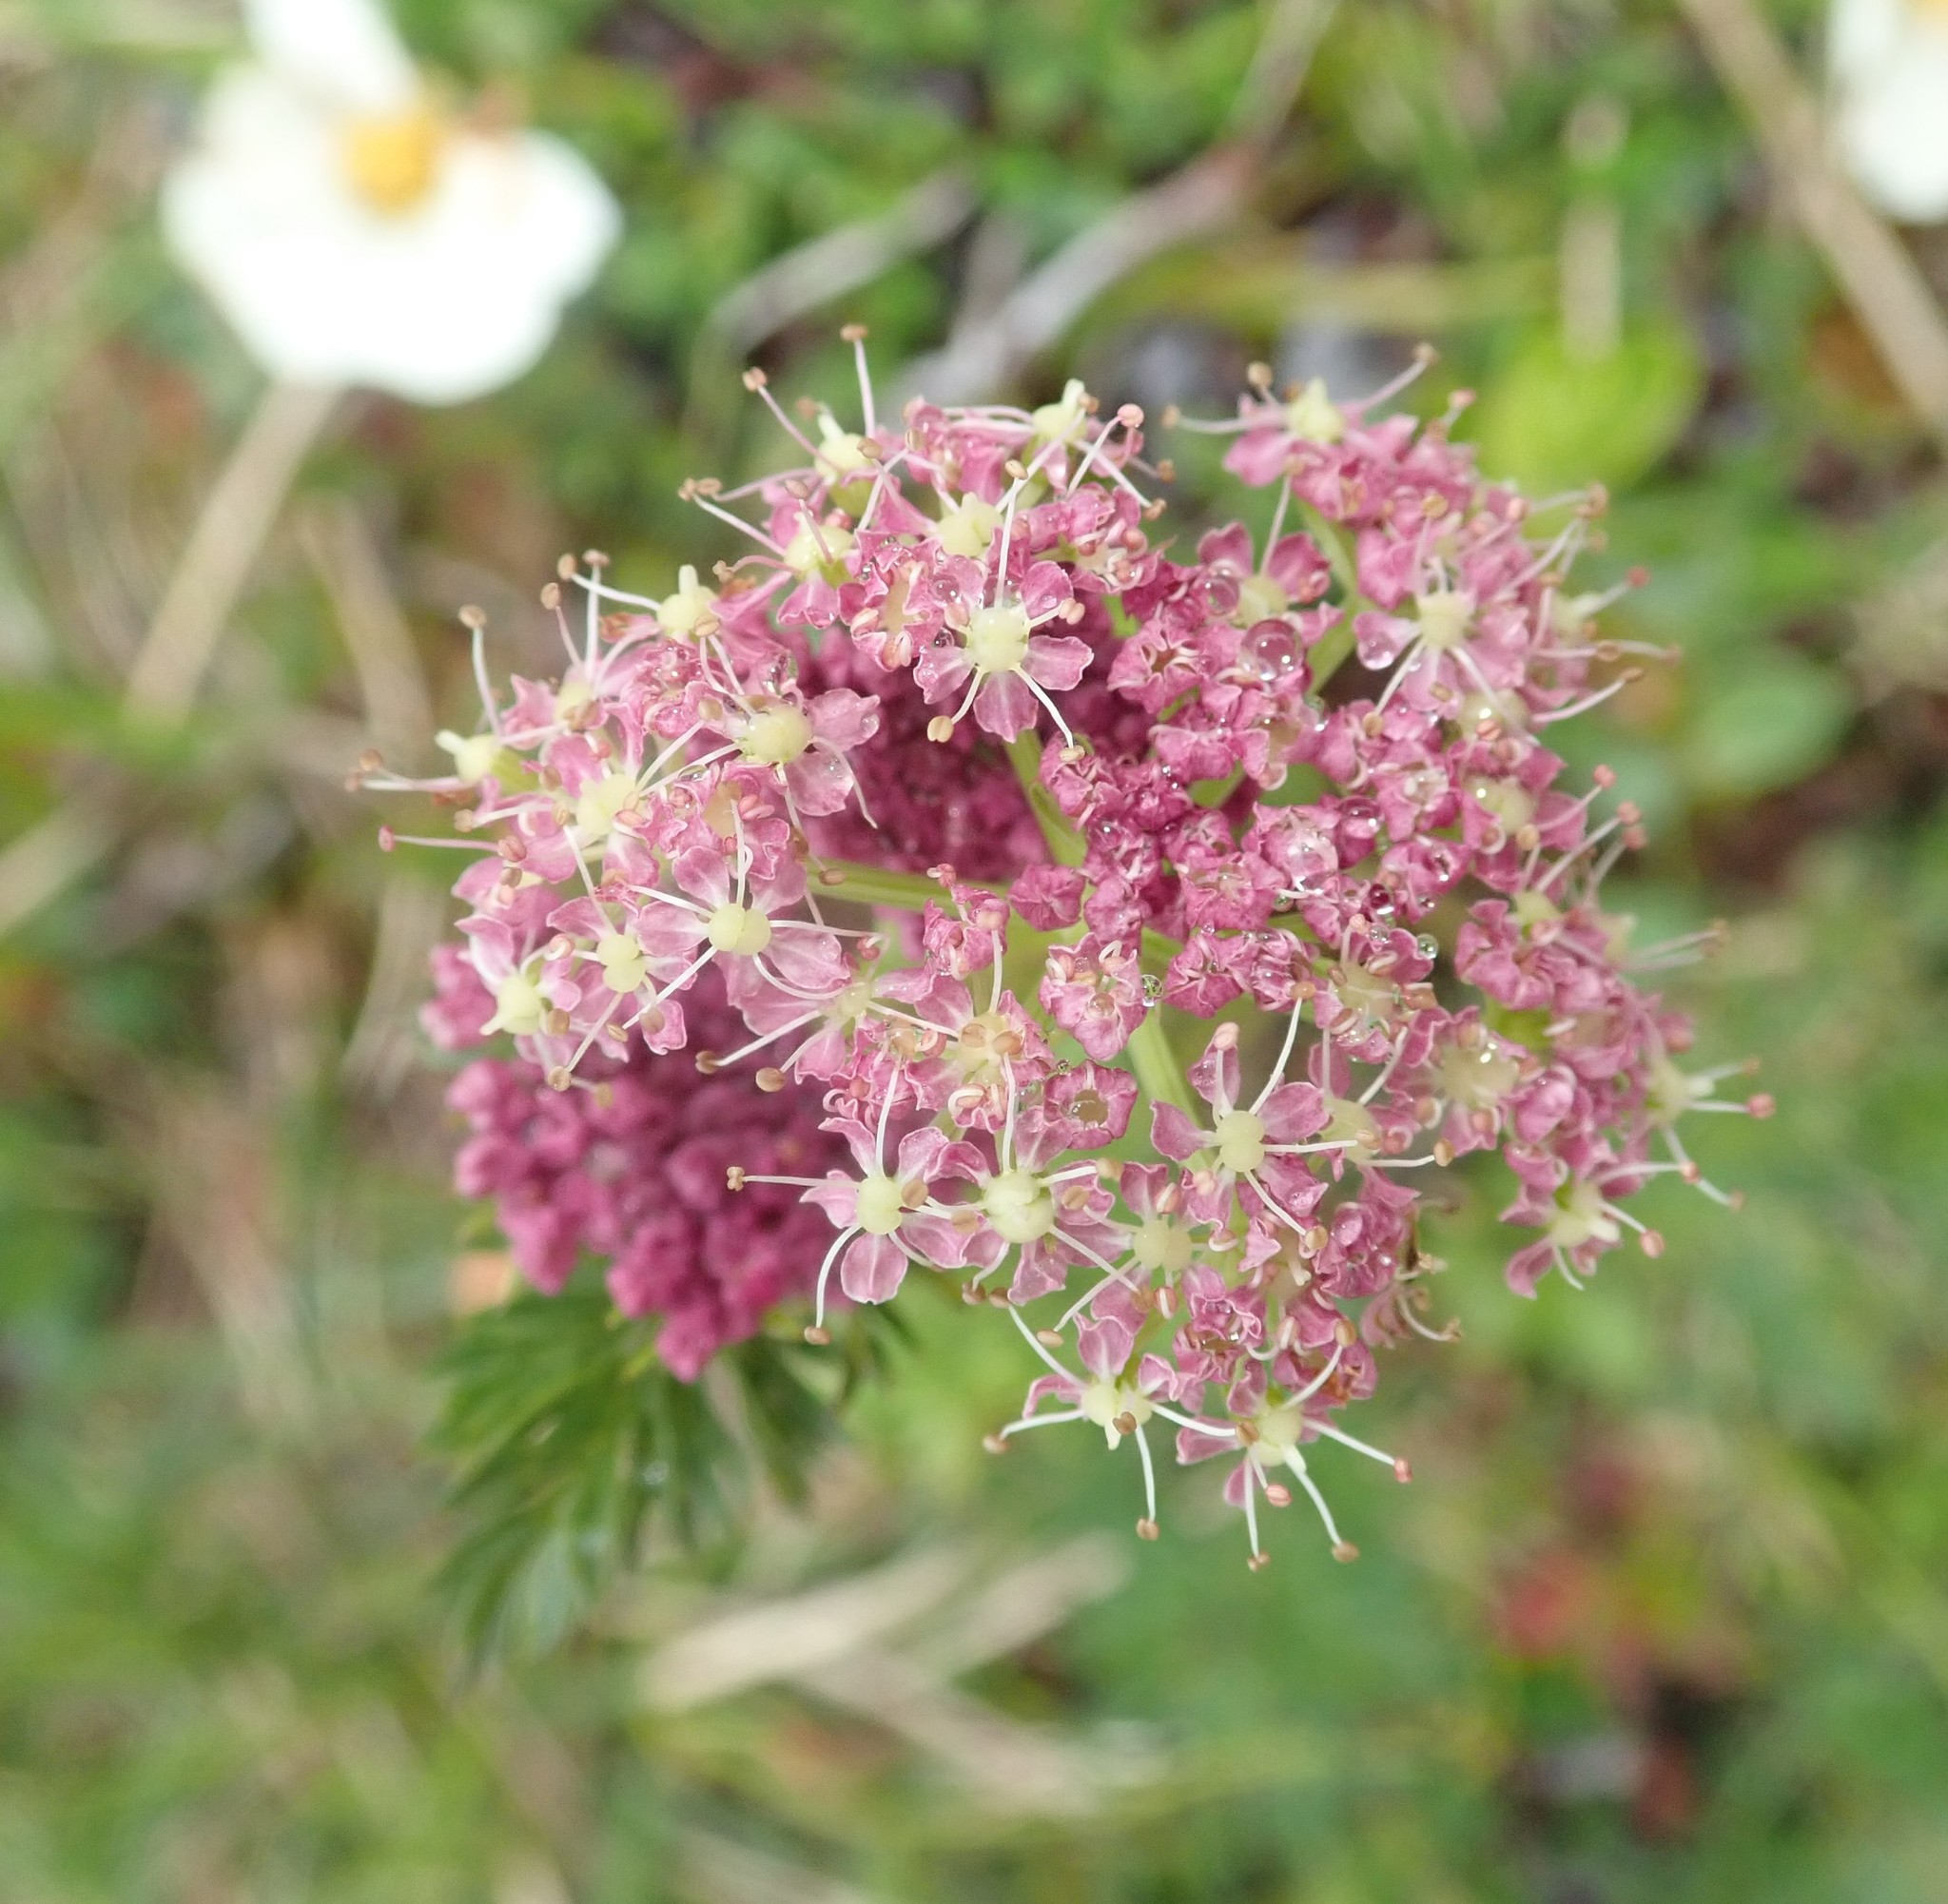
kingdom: Plantae
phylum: Tracheophyta
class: Magnoliopsida
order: Apiales
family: Apiaceae
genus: Mutellina
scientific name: Mutellina adonidifolia
